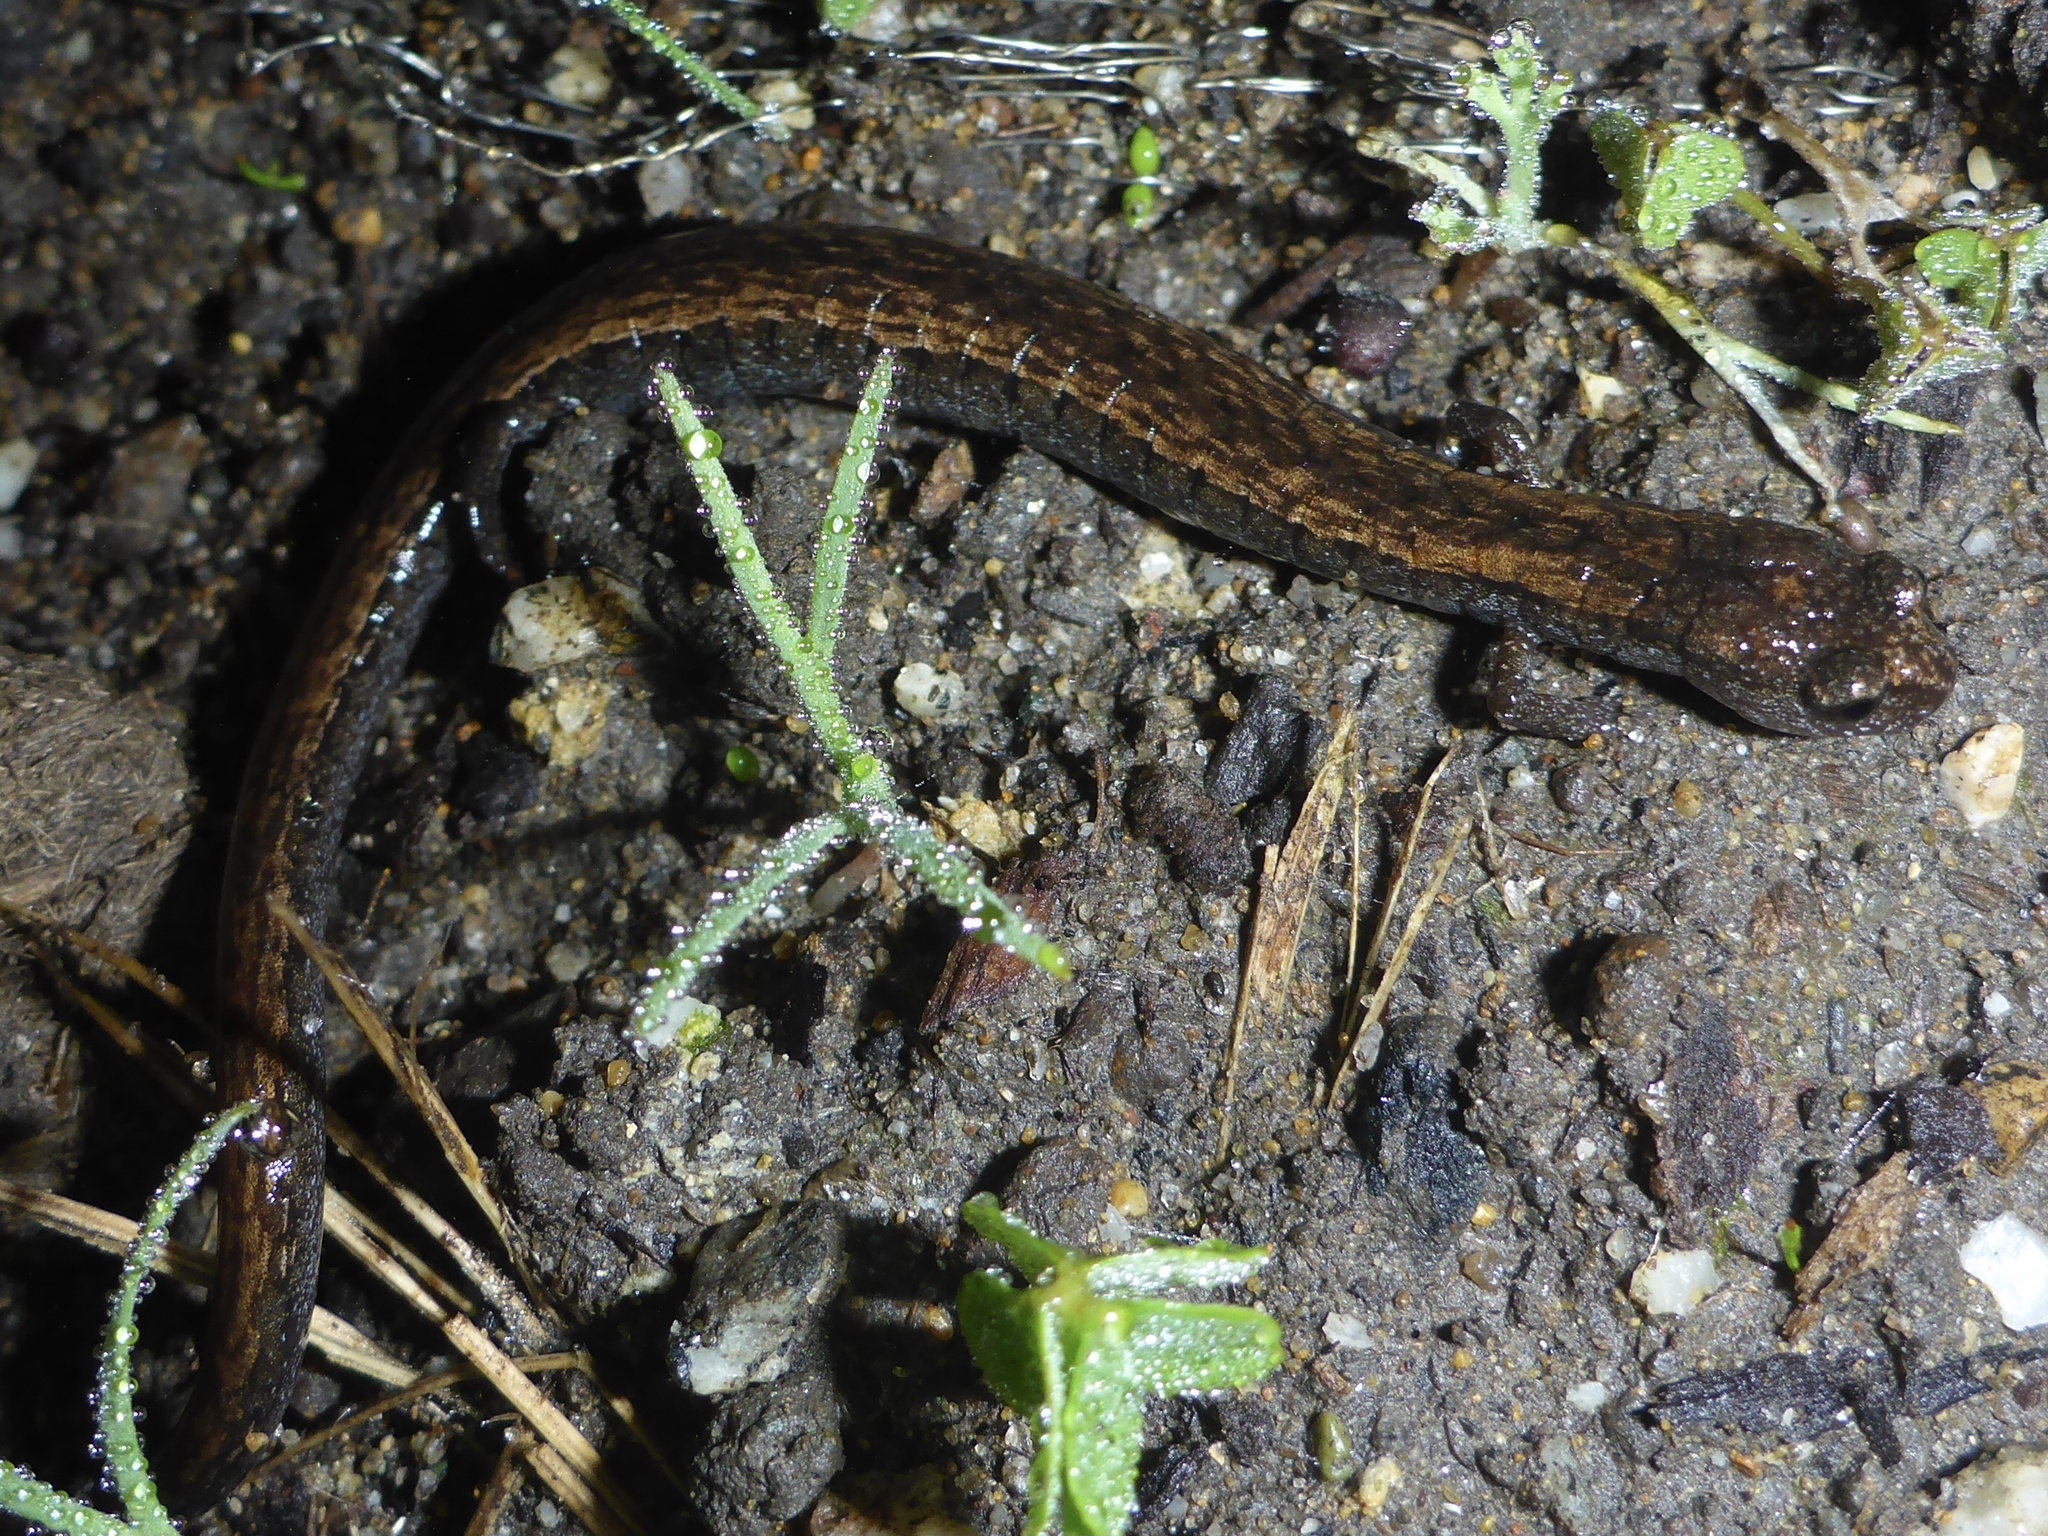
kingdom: Animalia
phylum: Chordata
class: Amphibia
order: Caudata
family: Plethodontidae
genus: Batrachoseps
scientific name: Batrachoseps attenuatus
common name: California slender salamander
